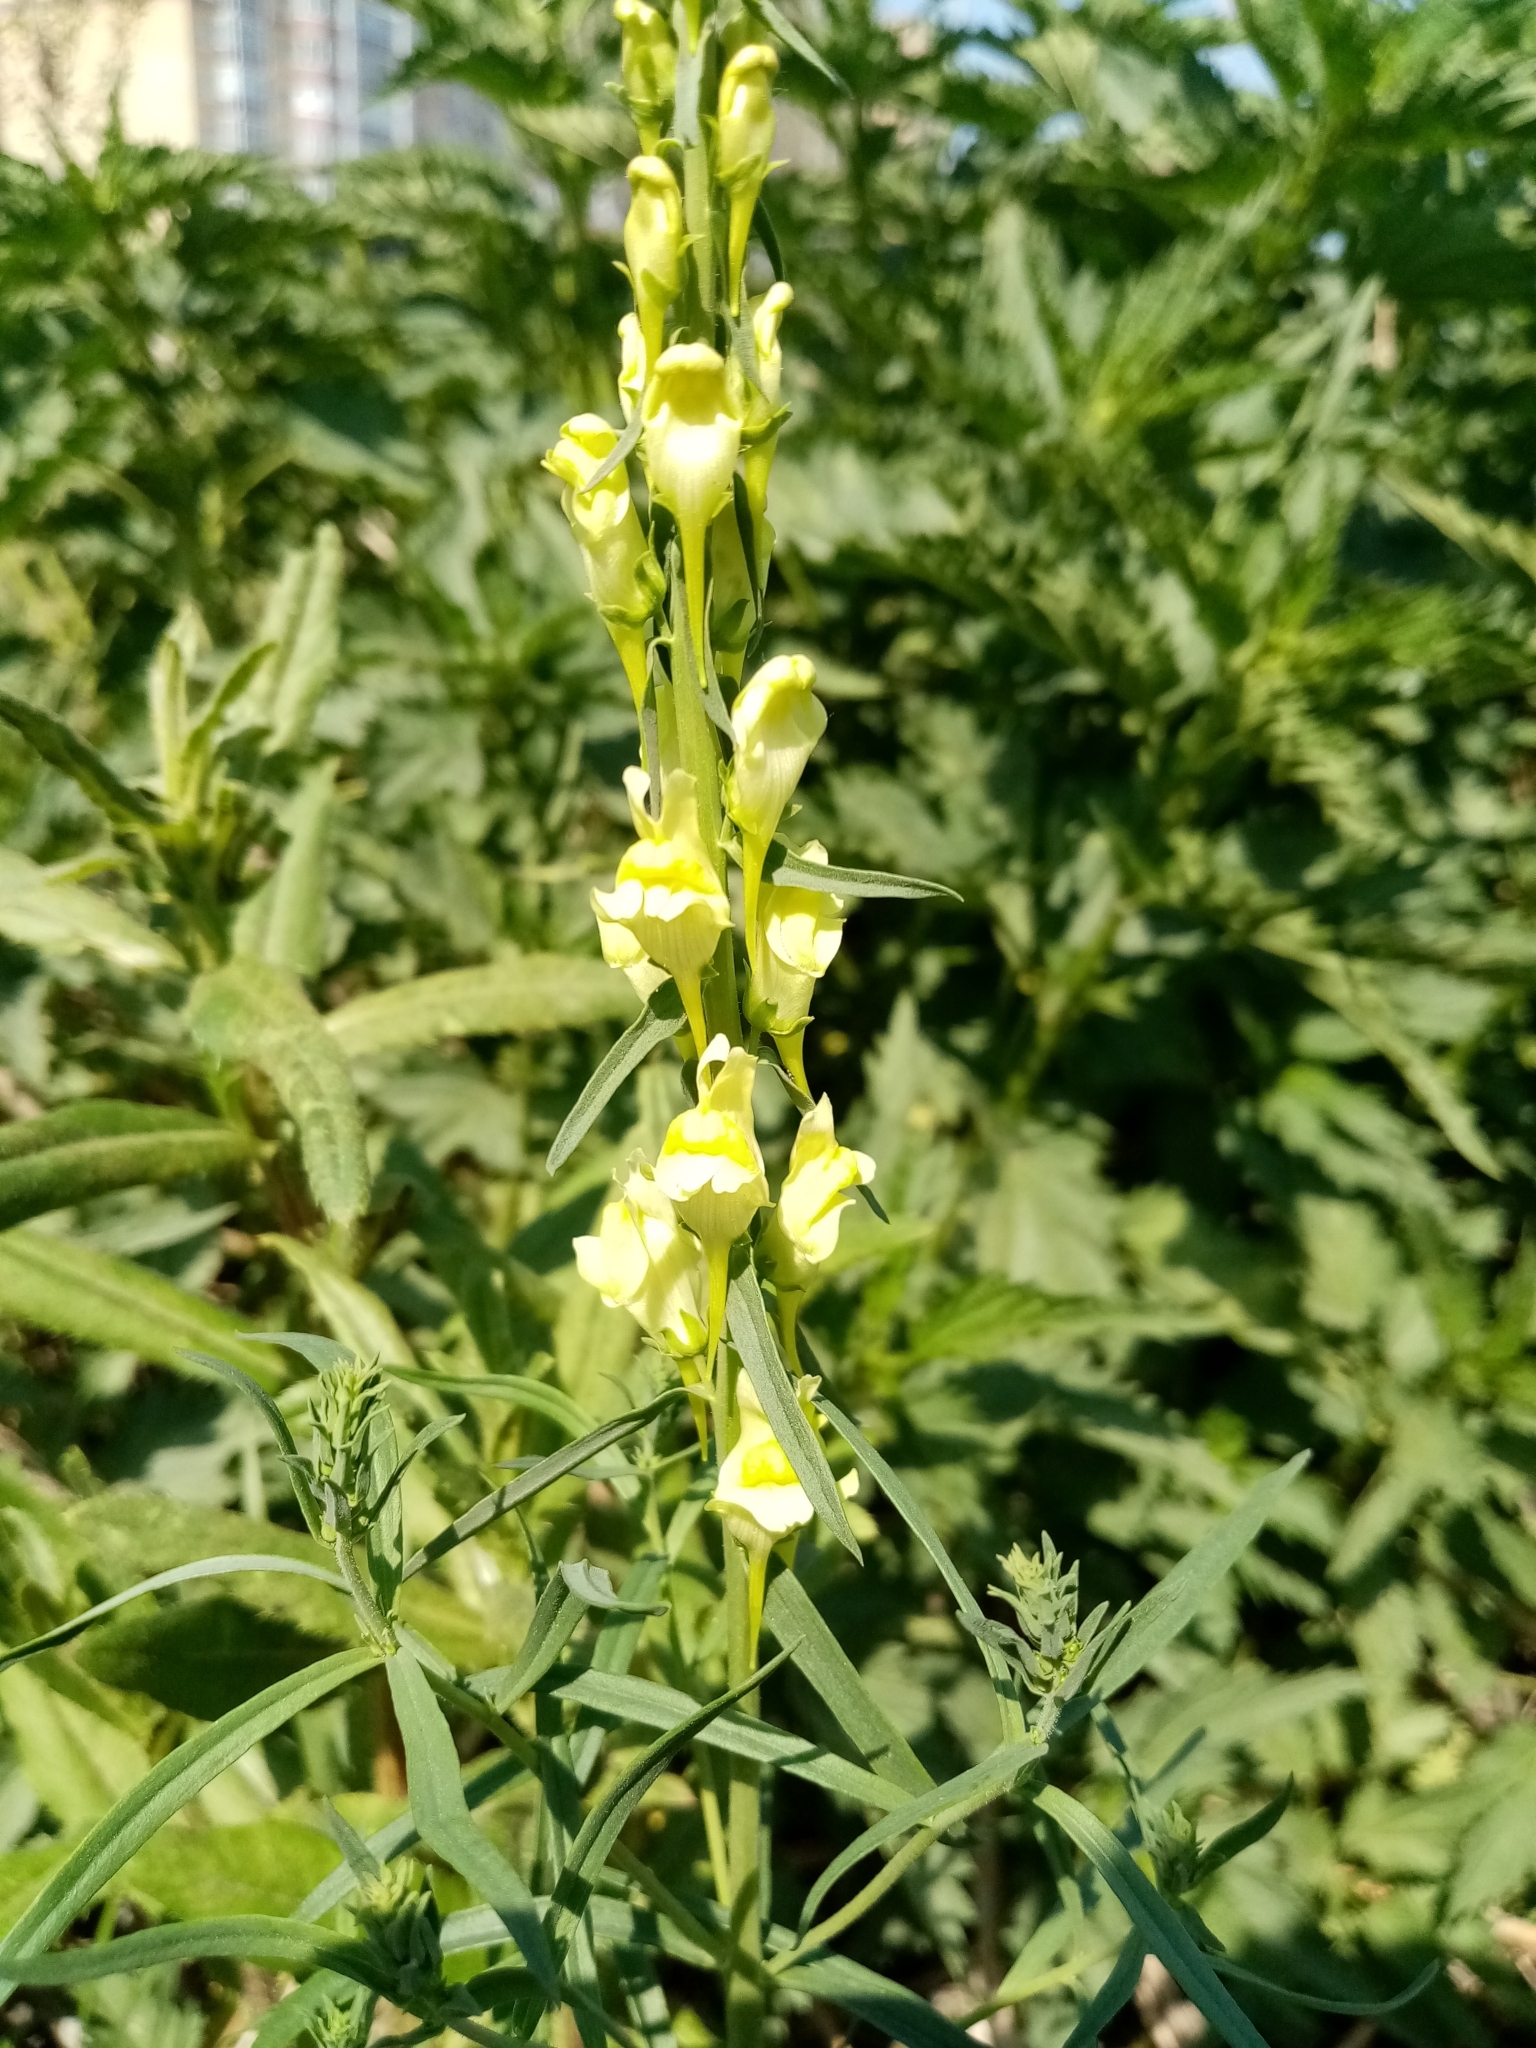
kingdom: Plantae
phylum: Tracheophyta
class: Magnoliopsida
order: Lamiales
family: Plantaginaceae
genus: Linaria
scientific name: Linaria vulgaris
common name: Butter and eggs
